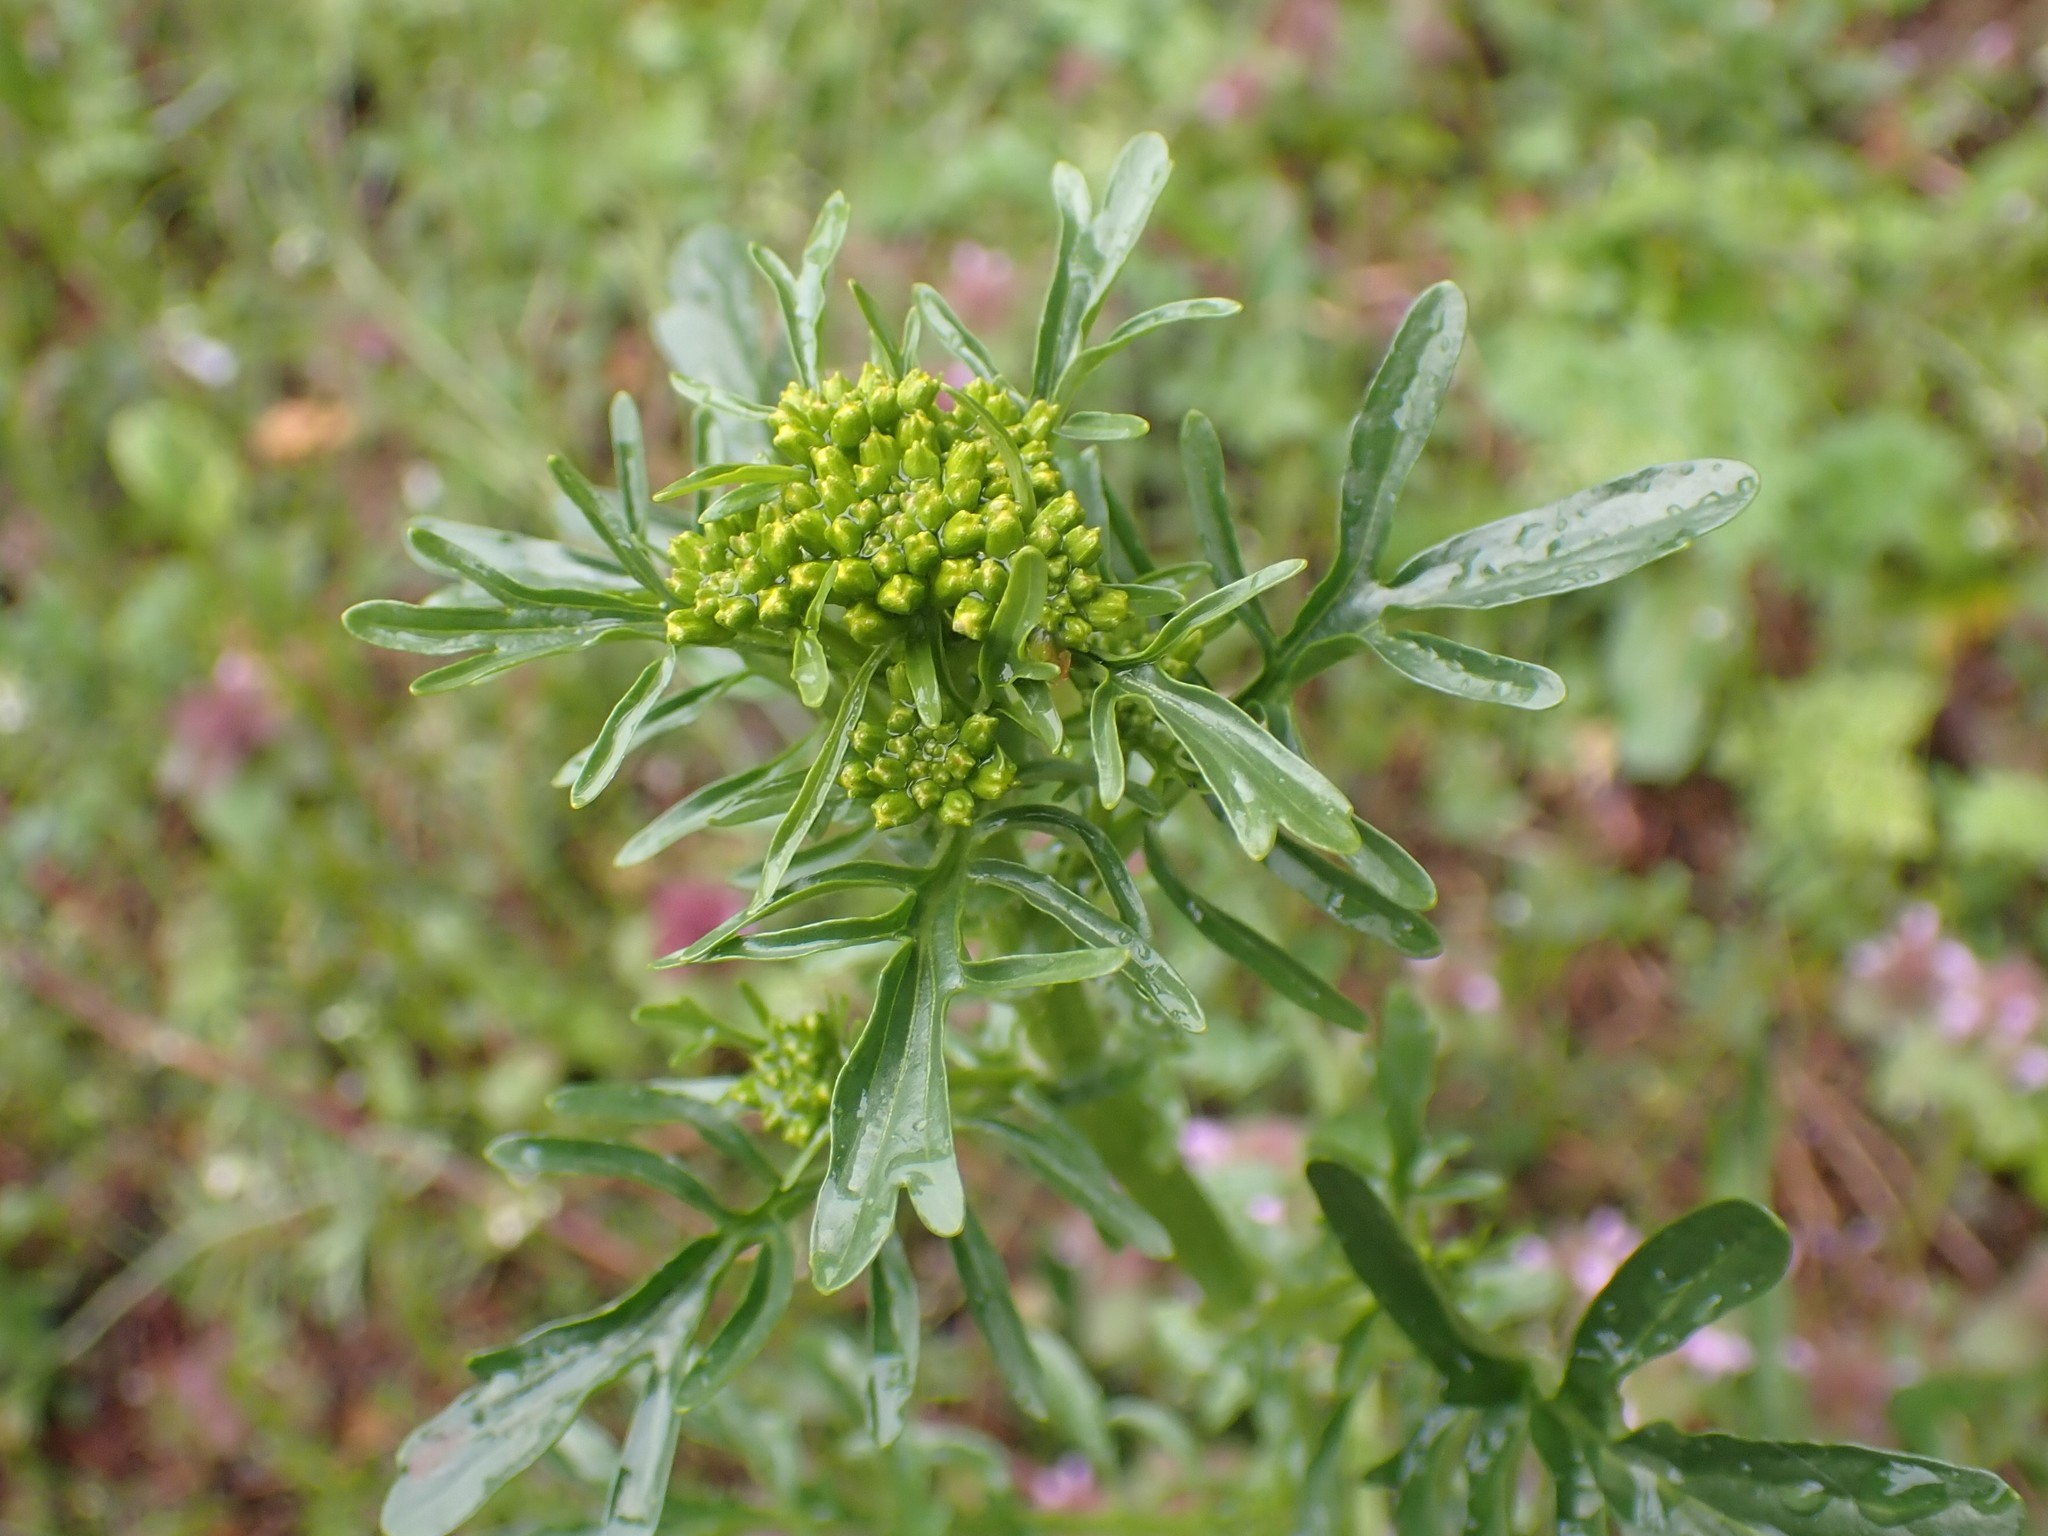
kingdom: Plantae
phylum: Tracheophyta
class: Magnoliopsida
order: Brassicales
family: Brassicaceae
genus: Barbarea
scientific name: Barbarea verna
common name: American cress
